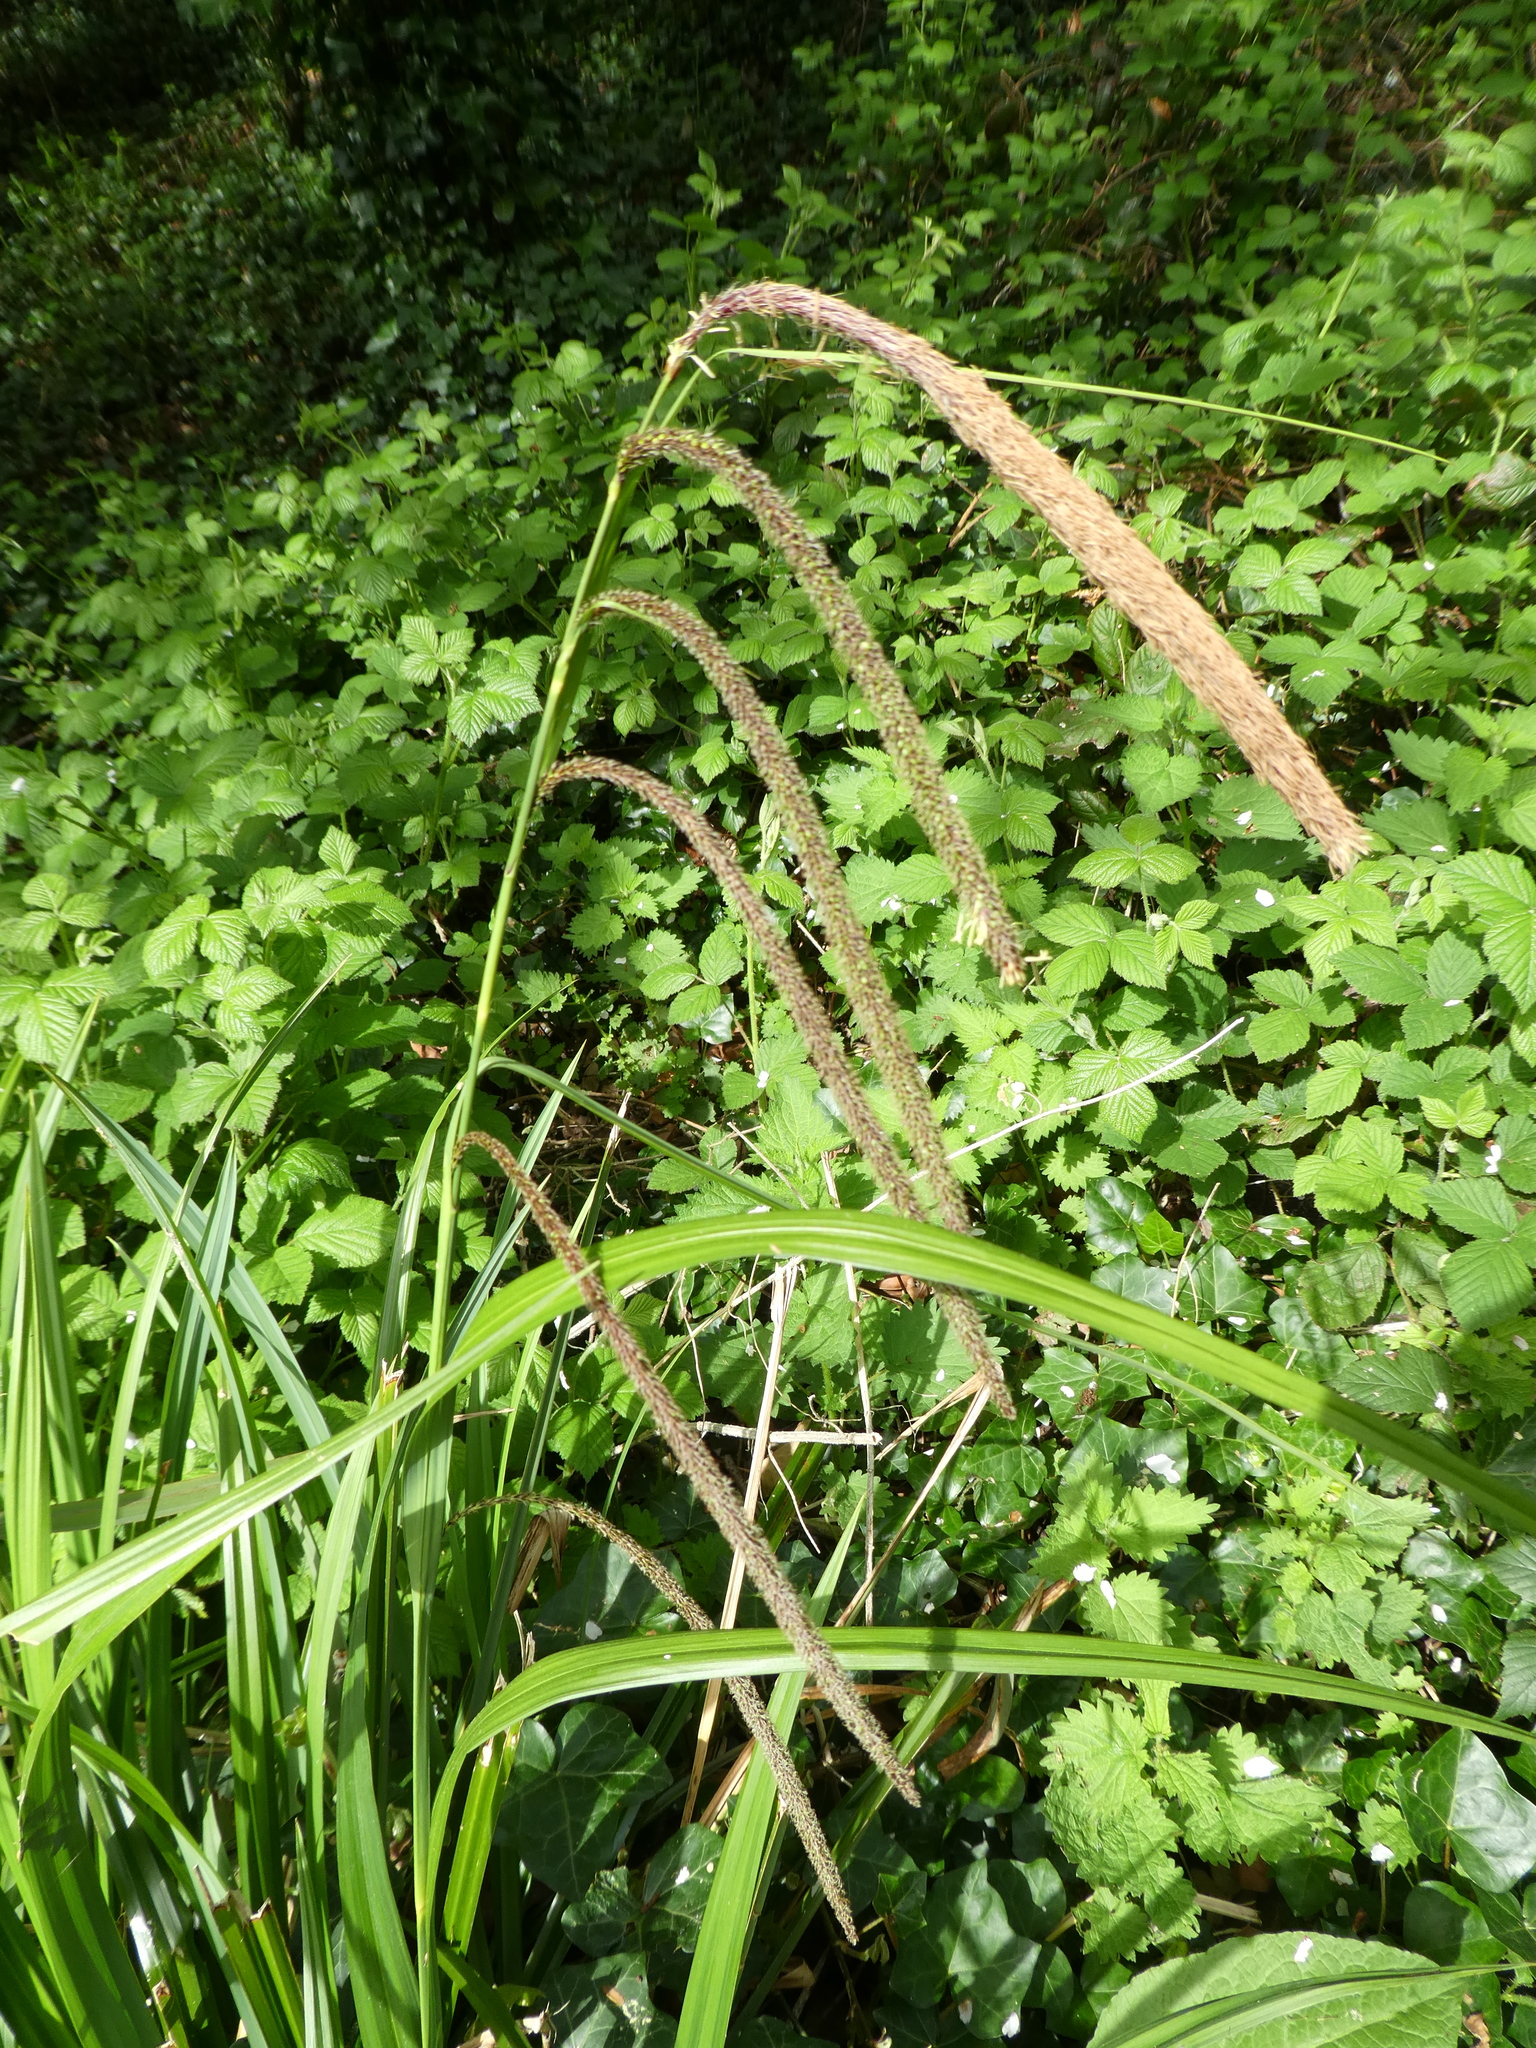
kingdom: Plantae
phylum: Tracheophyta
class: Liliopsida
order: Poales
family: Cyperaceae
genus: Carex
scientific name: Carex pendula
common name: Pendulous sedge
